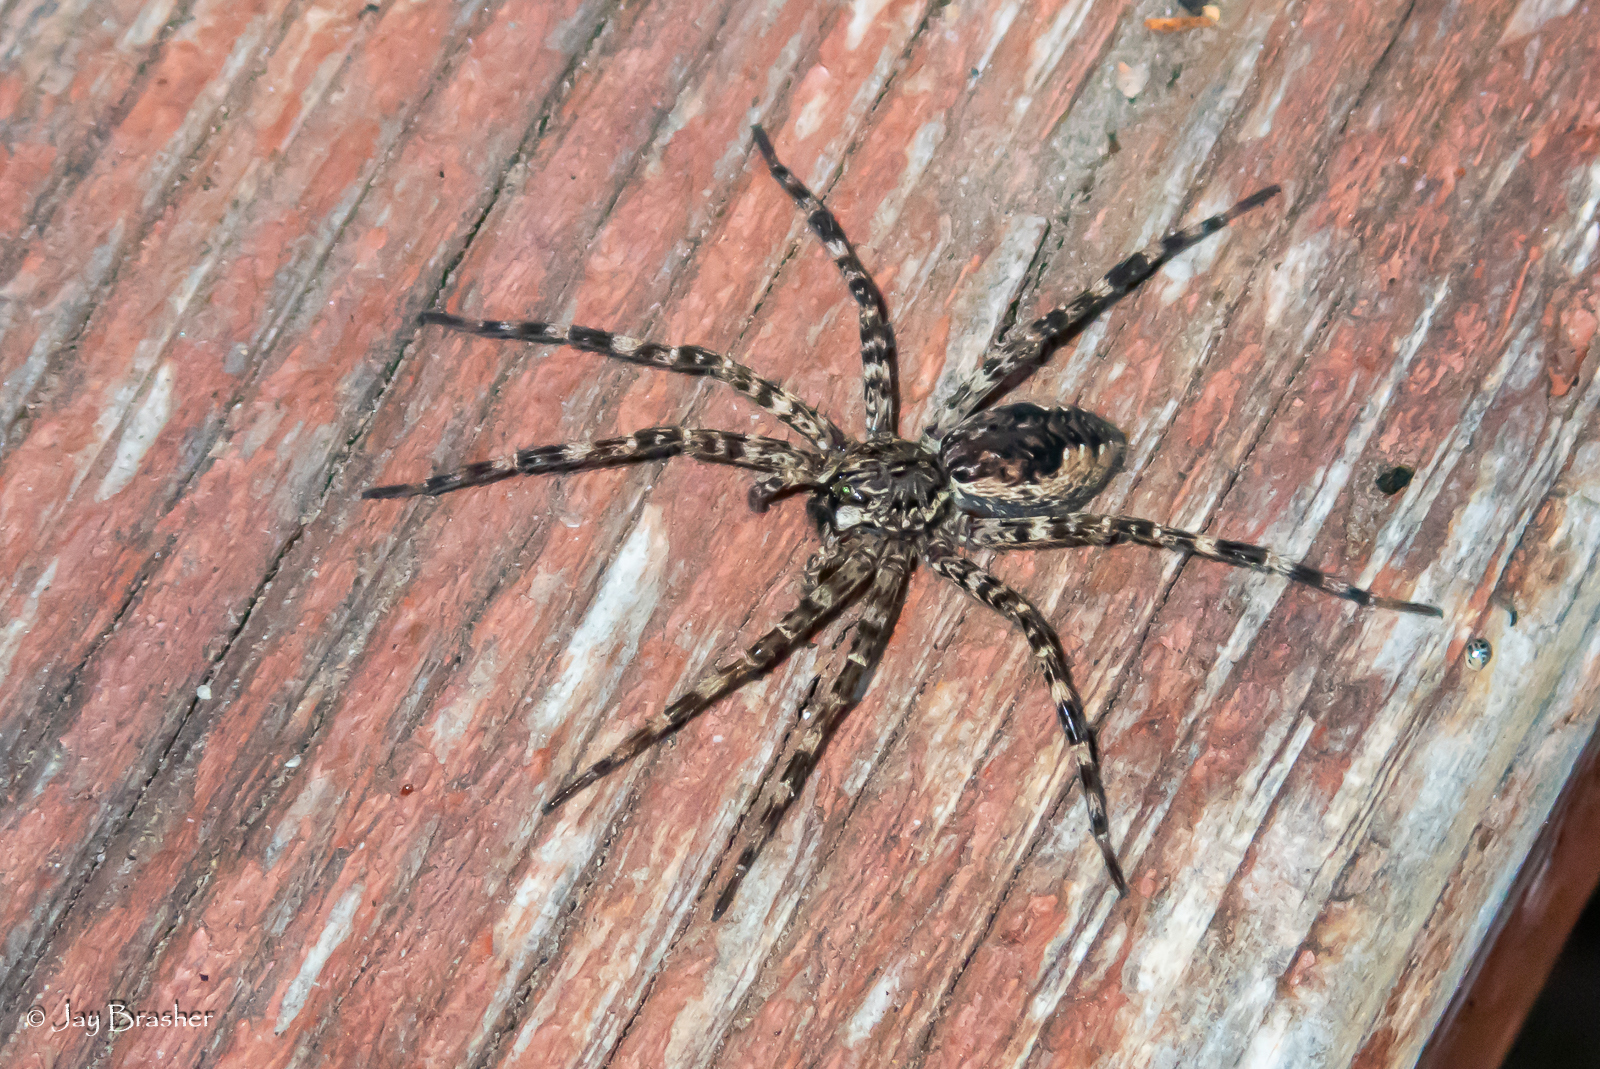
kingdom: Animalia
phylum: Arthropoda
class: Arachnida
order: Araneae
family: Pisauridae
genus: Dolomedes
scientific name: Dolomedes tenebrosus
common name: Dark fishing spider
